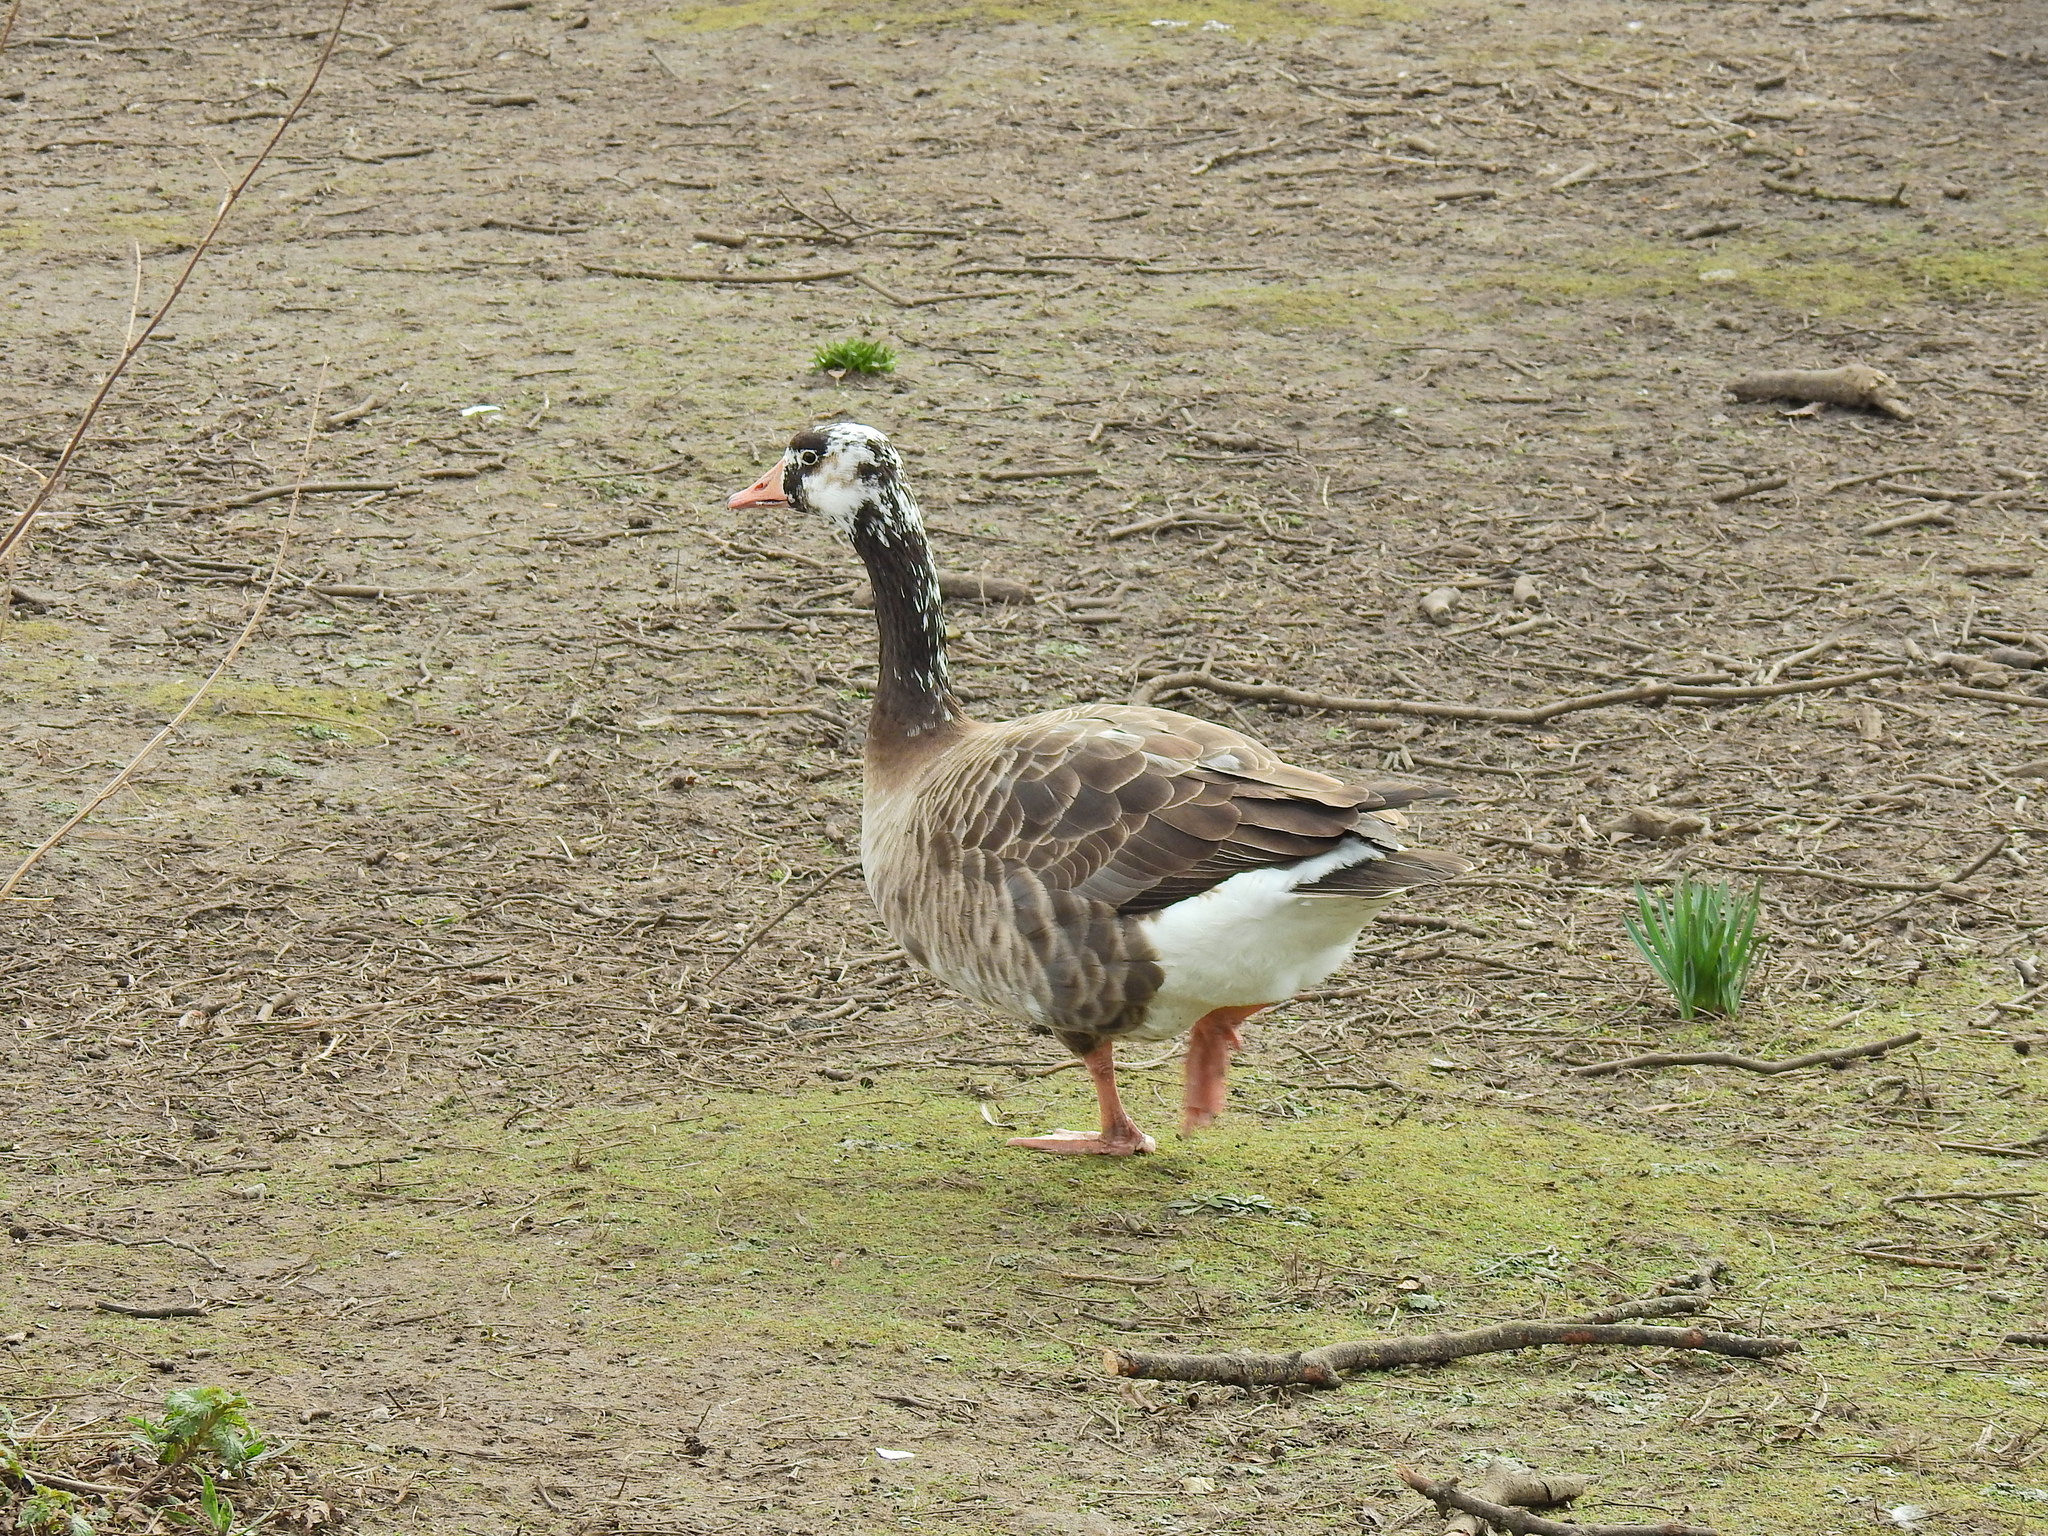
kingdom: Animalia
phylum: Chordata
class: Aves
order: Anseriformes
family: Anatidae
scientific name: Anatidae
